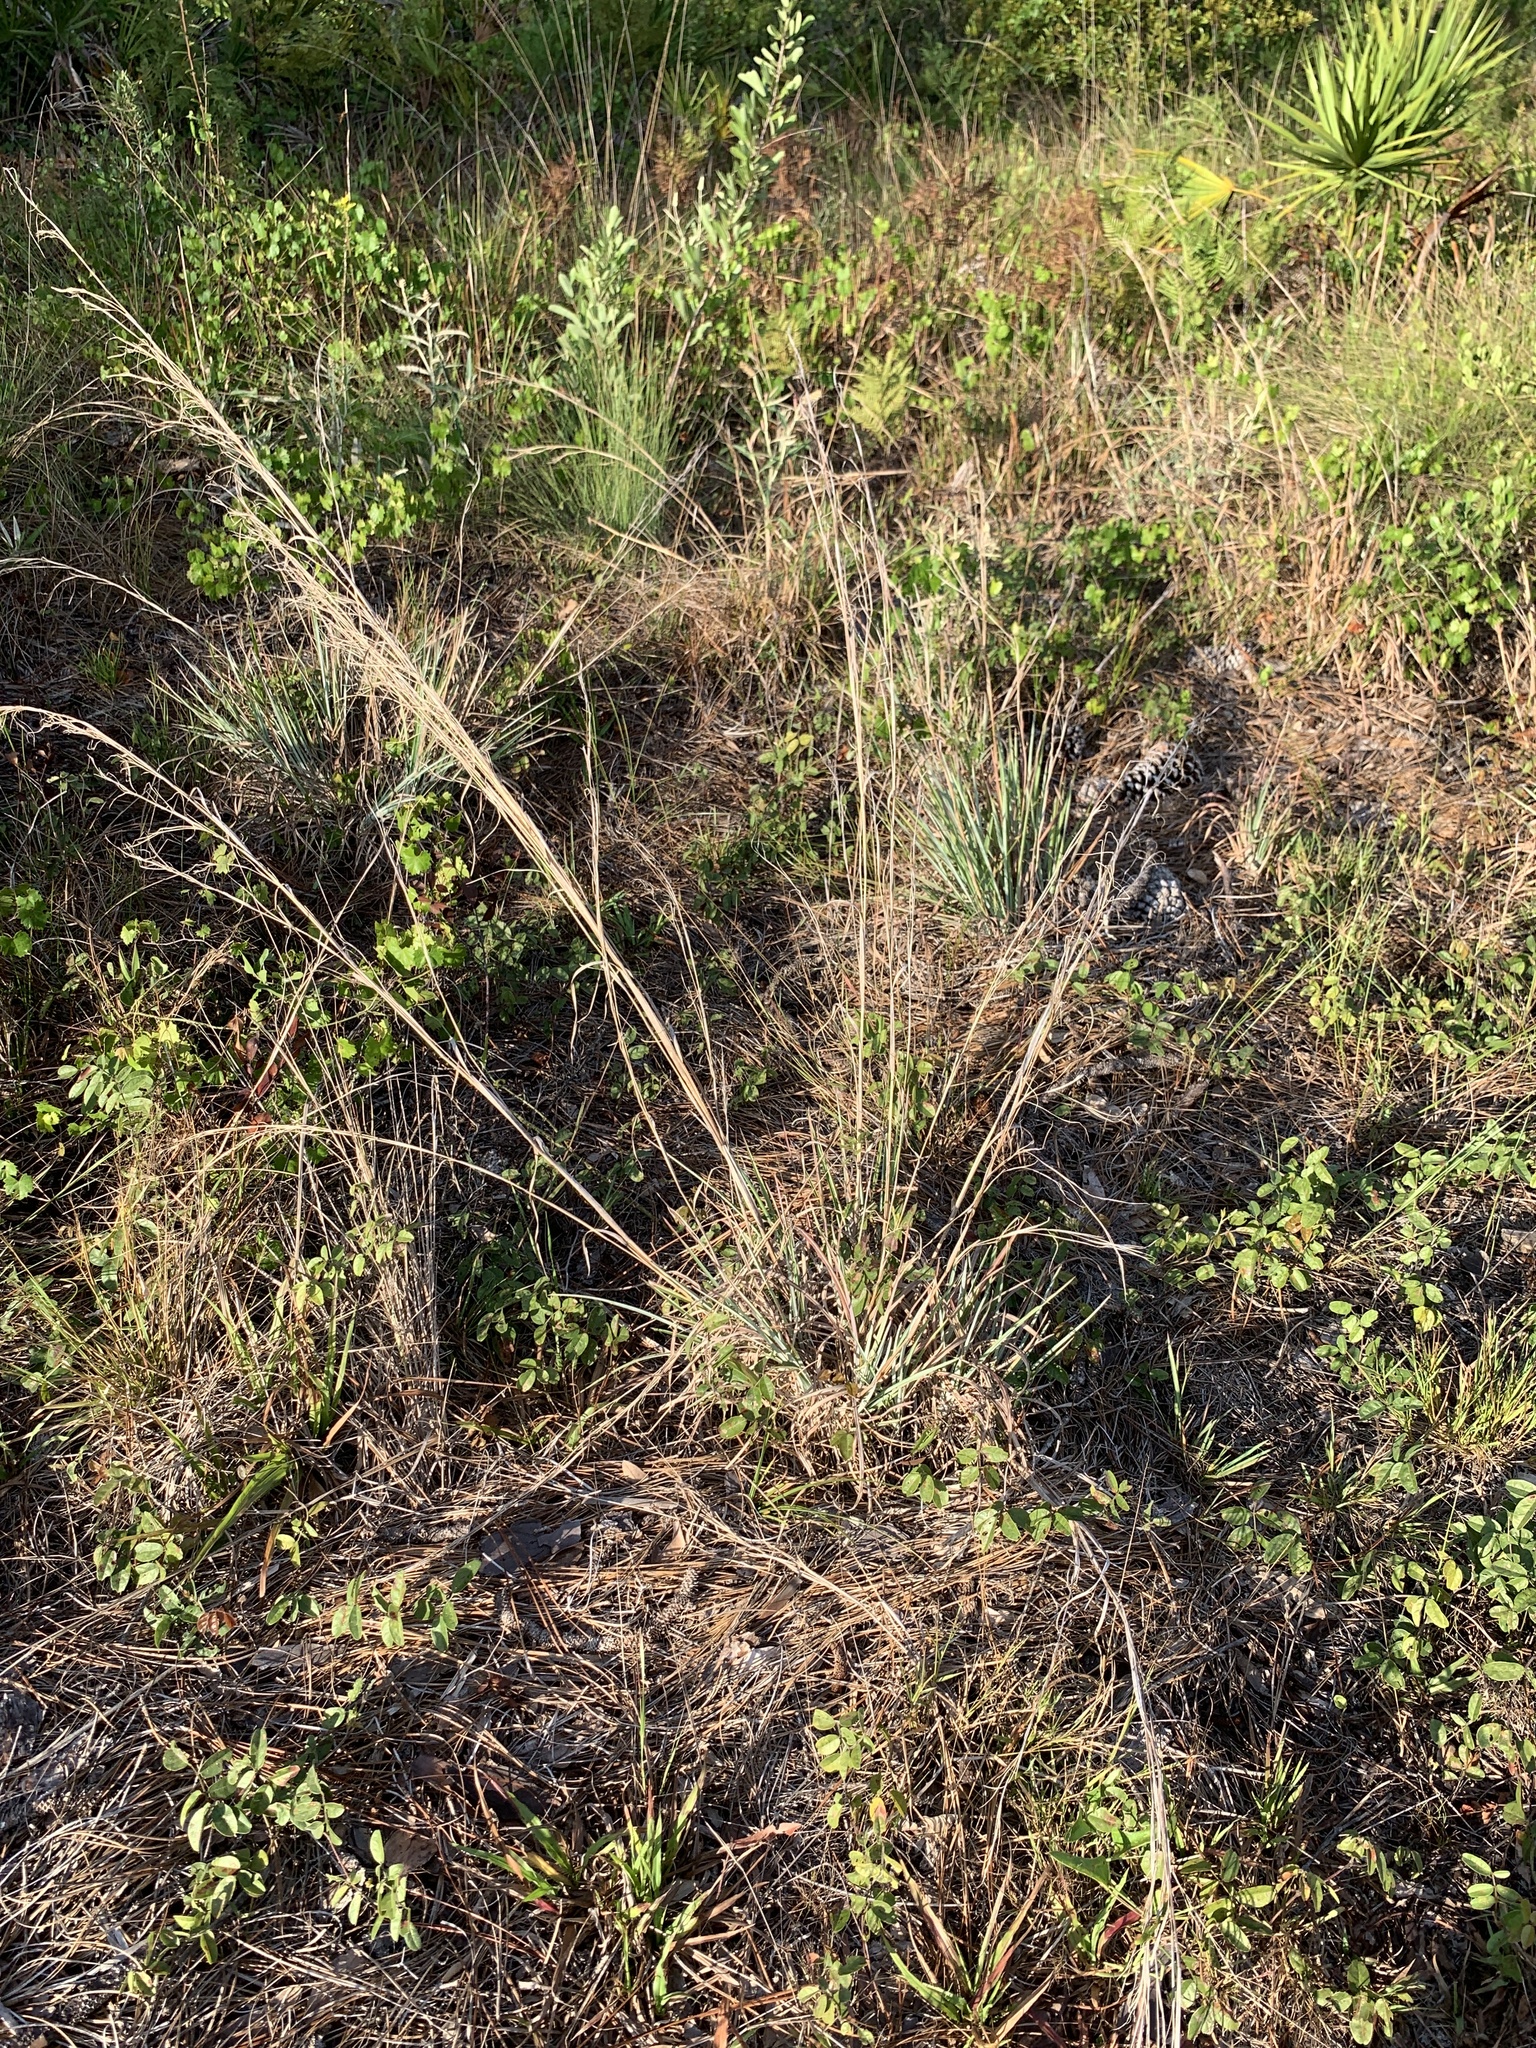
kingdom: Plantae
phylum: Tracheophyta
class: Liliopsida
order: Poales
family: Poaceae
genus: Andropogon
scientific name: Andropogon capillipes
